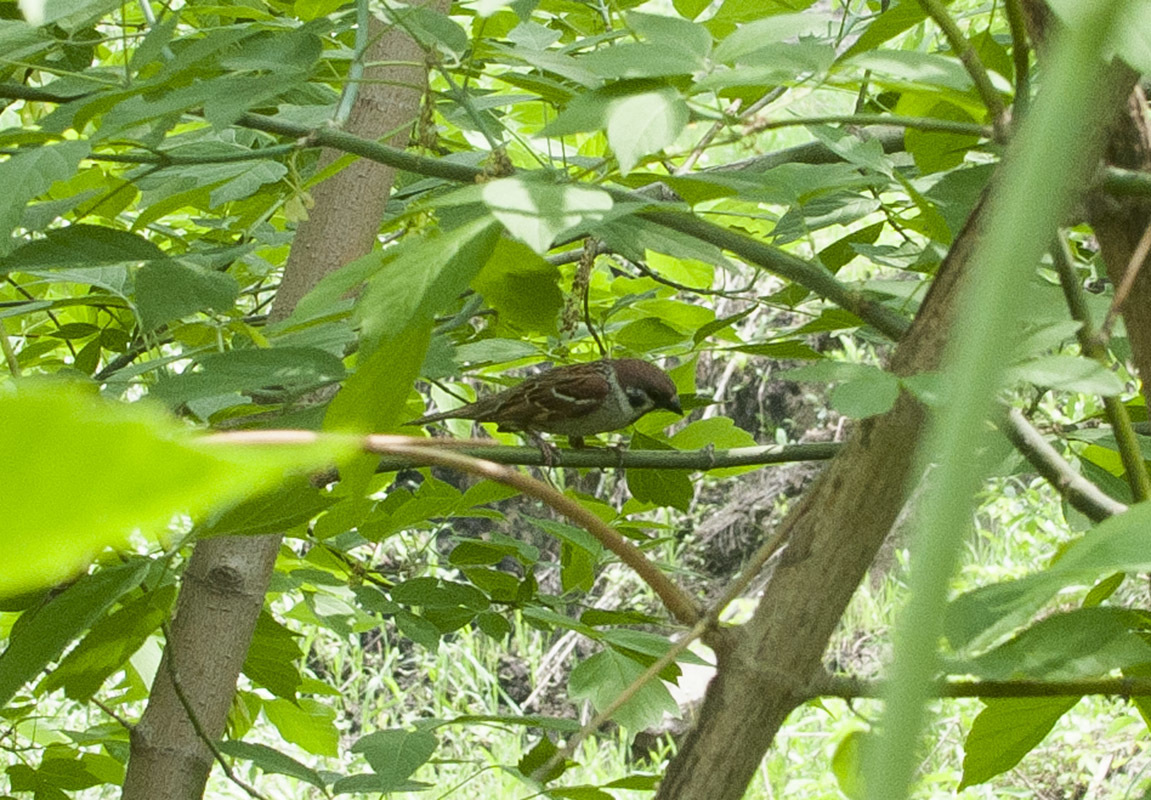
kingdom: Animalia
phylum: Chordata
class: Aves
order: Passeriformes
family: Passeridae
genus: Passer
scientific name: Passer montanus
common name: Eurasian tree sparrow
